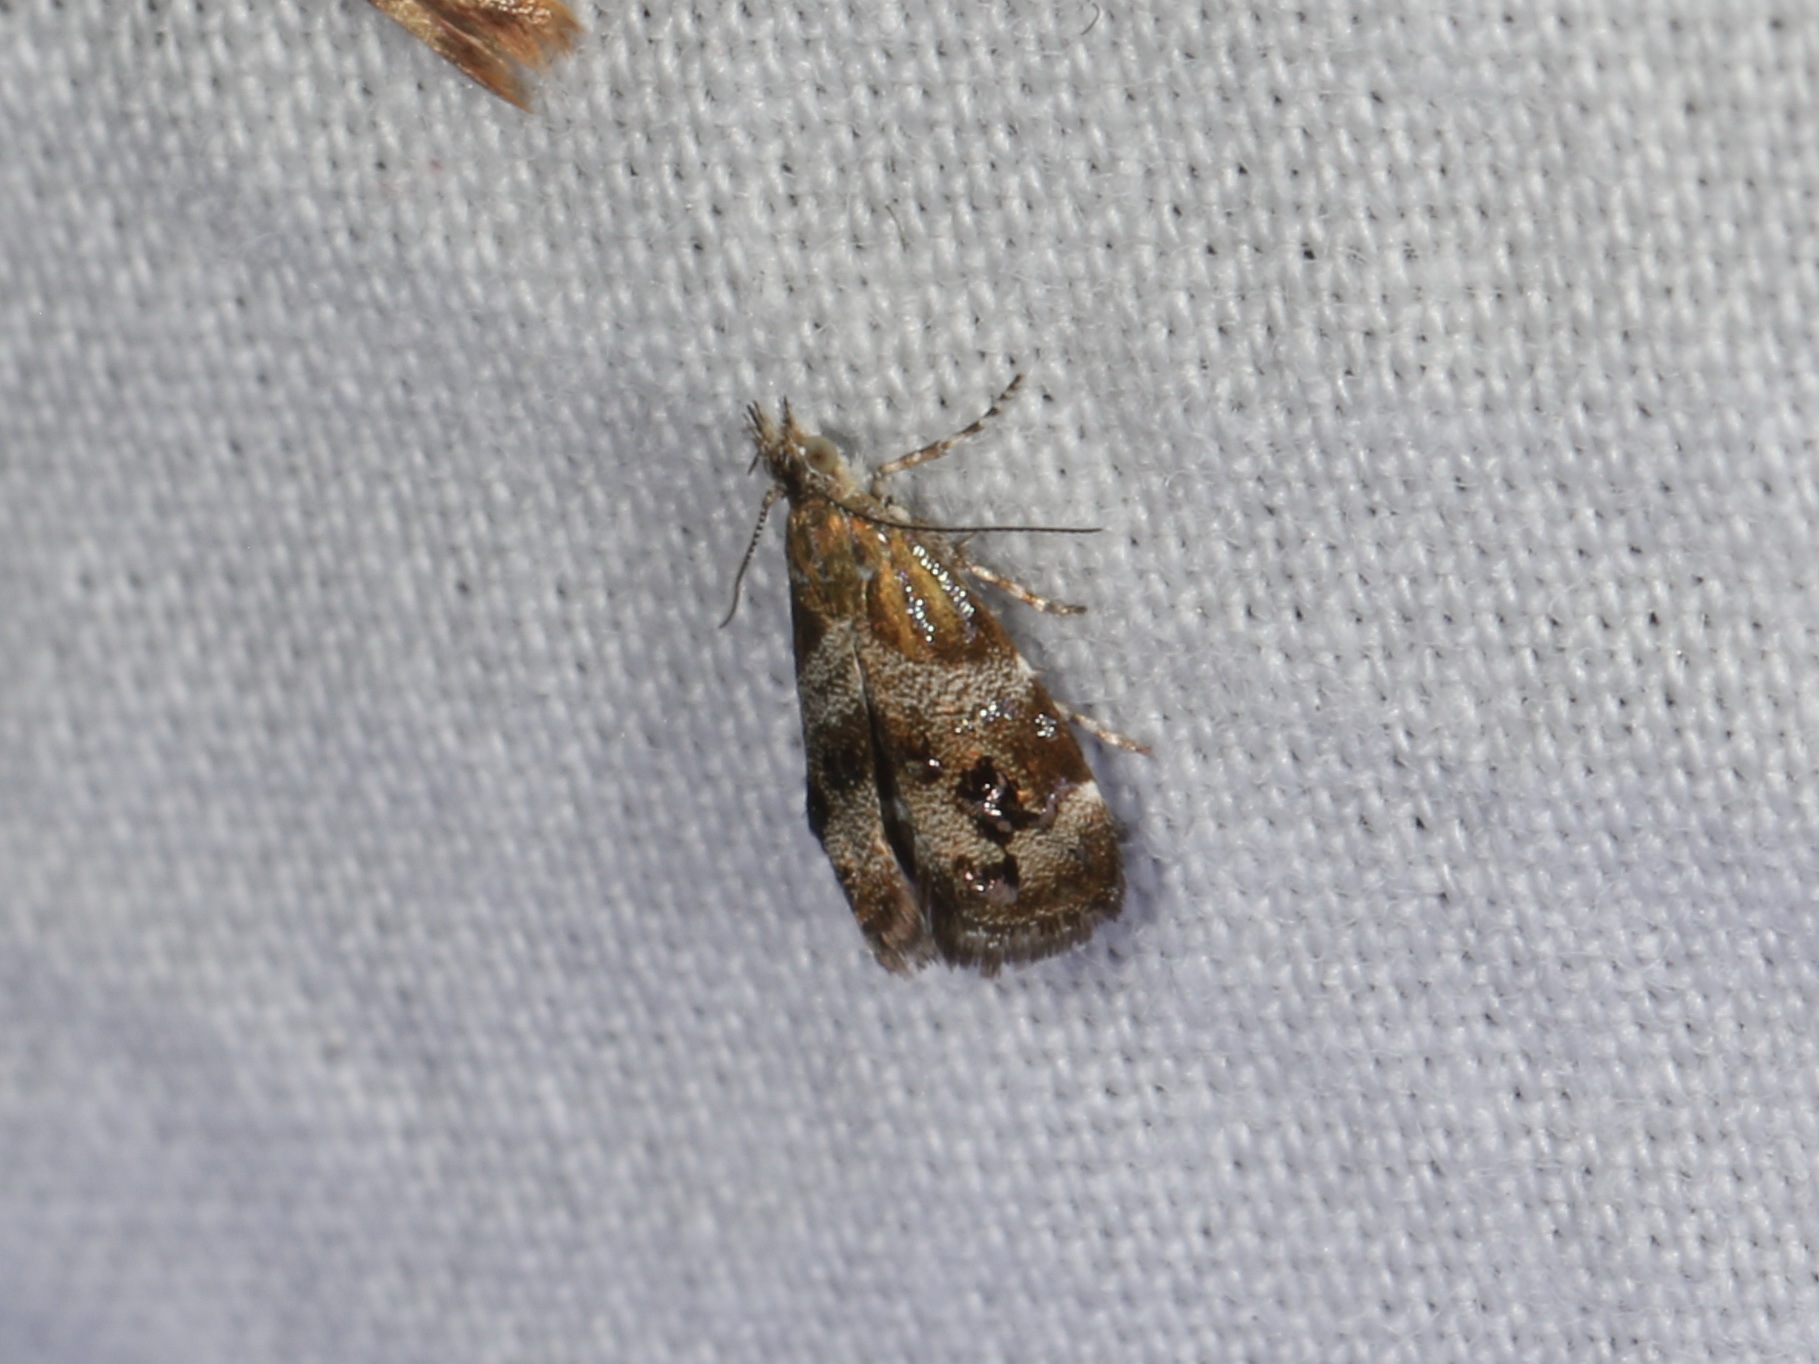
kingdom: Animalia
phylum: Arthropoda
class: Insecta
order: Lepidoptera
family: Choreutidae
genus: Tebenna
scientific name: Tebenna micalis
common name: Vagrant twitcher
